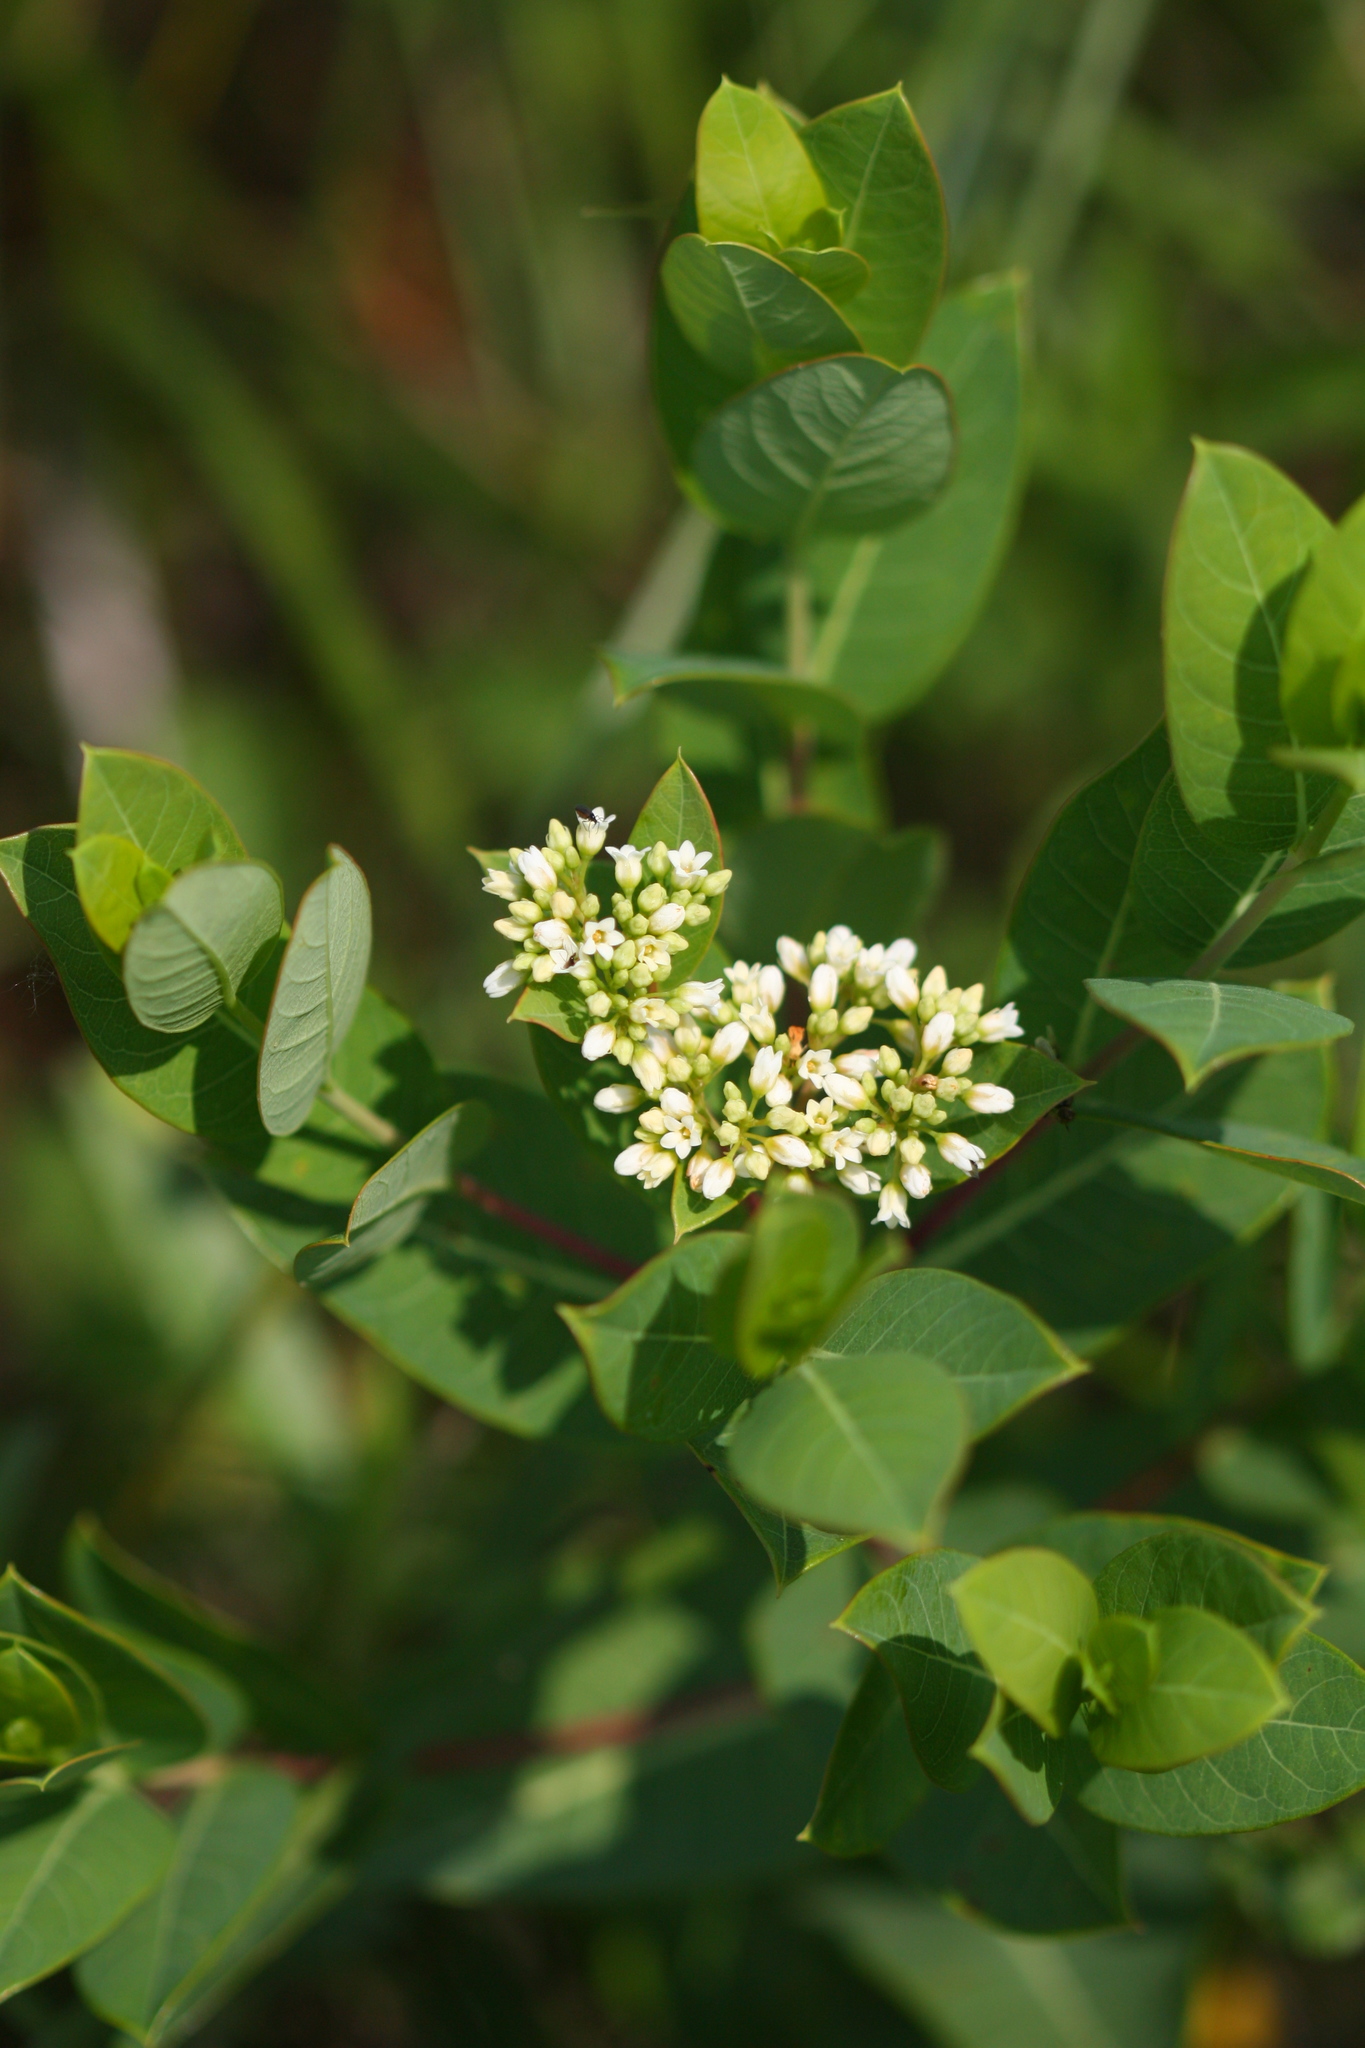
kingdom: Plantae
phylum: Tracheophyta
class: Magnoliopsida
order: Gentianales
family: Apocynaceae
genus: Apocynum
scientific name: Apocynum cannabinum
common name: Hemp dogbane
